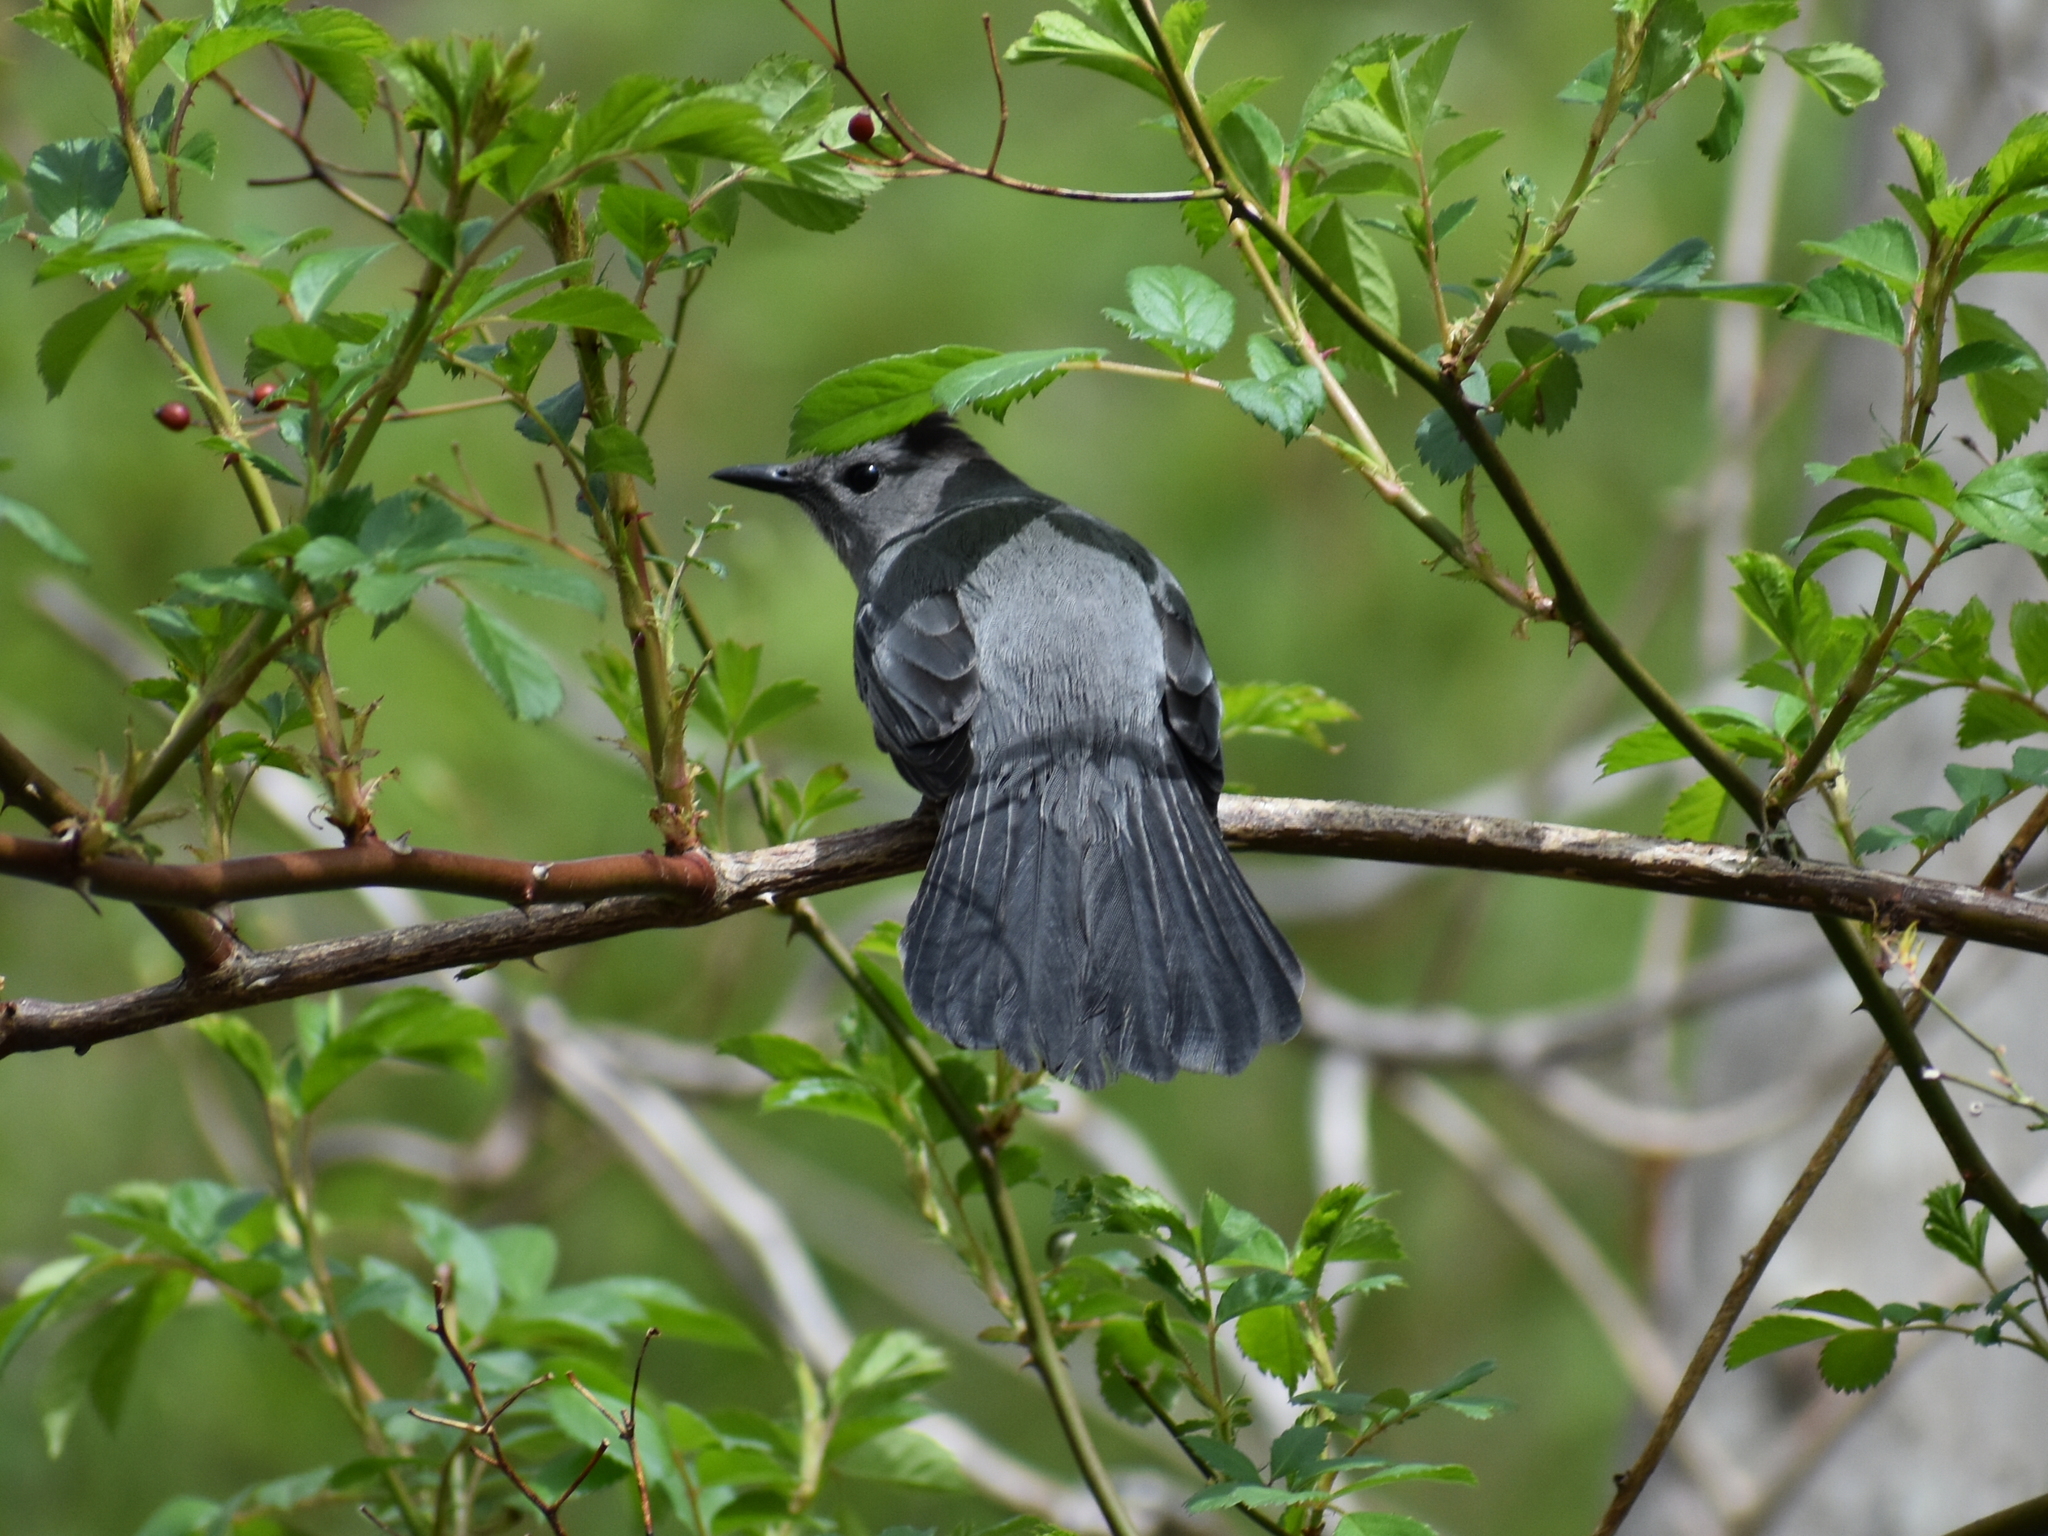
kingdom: Animalia
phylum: Chordata
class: Aves
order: Passeriformes
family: Mimidae
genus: Dumetella
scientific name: Dumetella carolinensis
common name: Gray catbird
